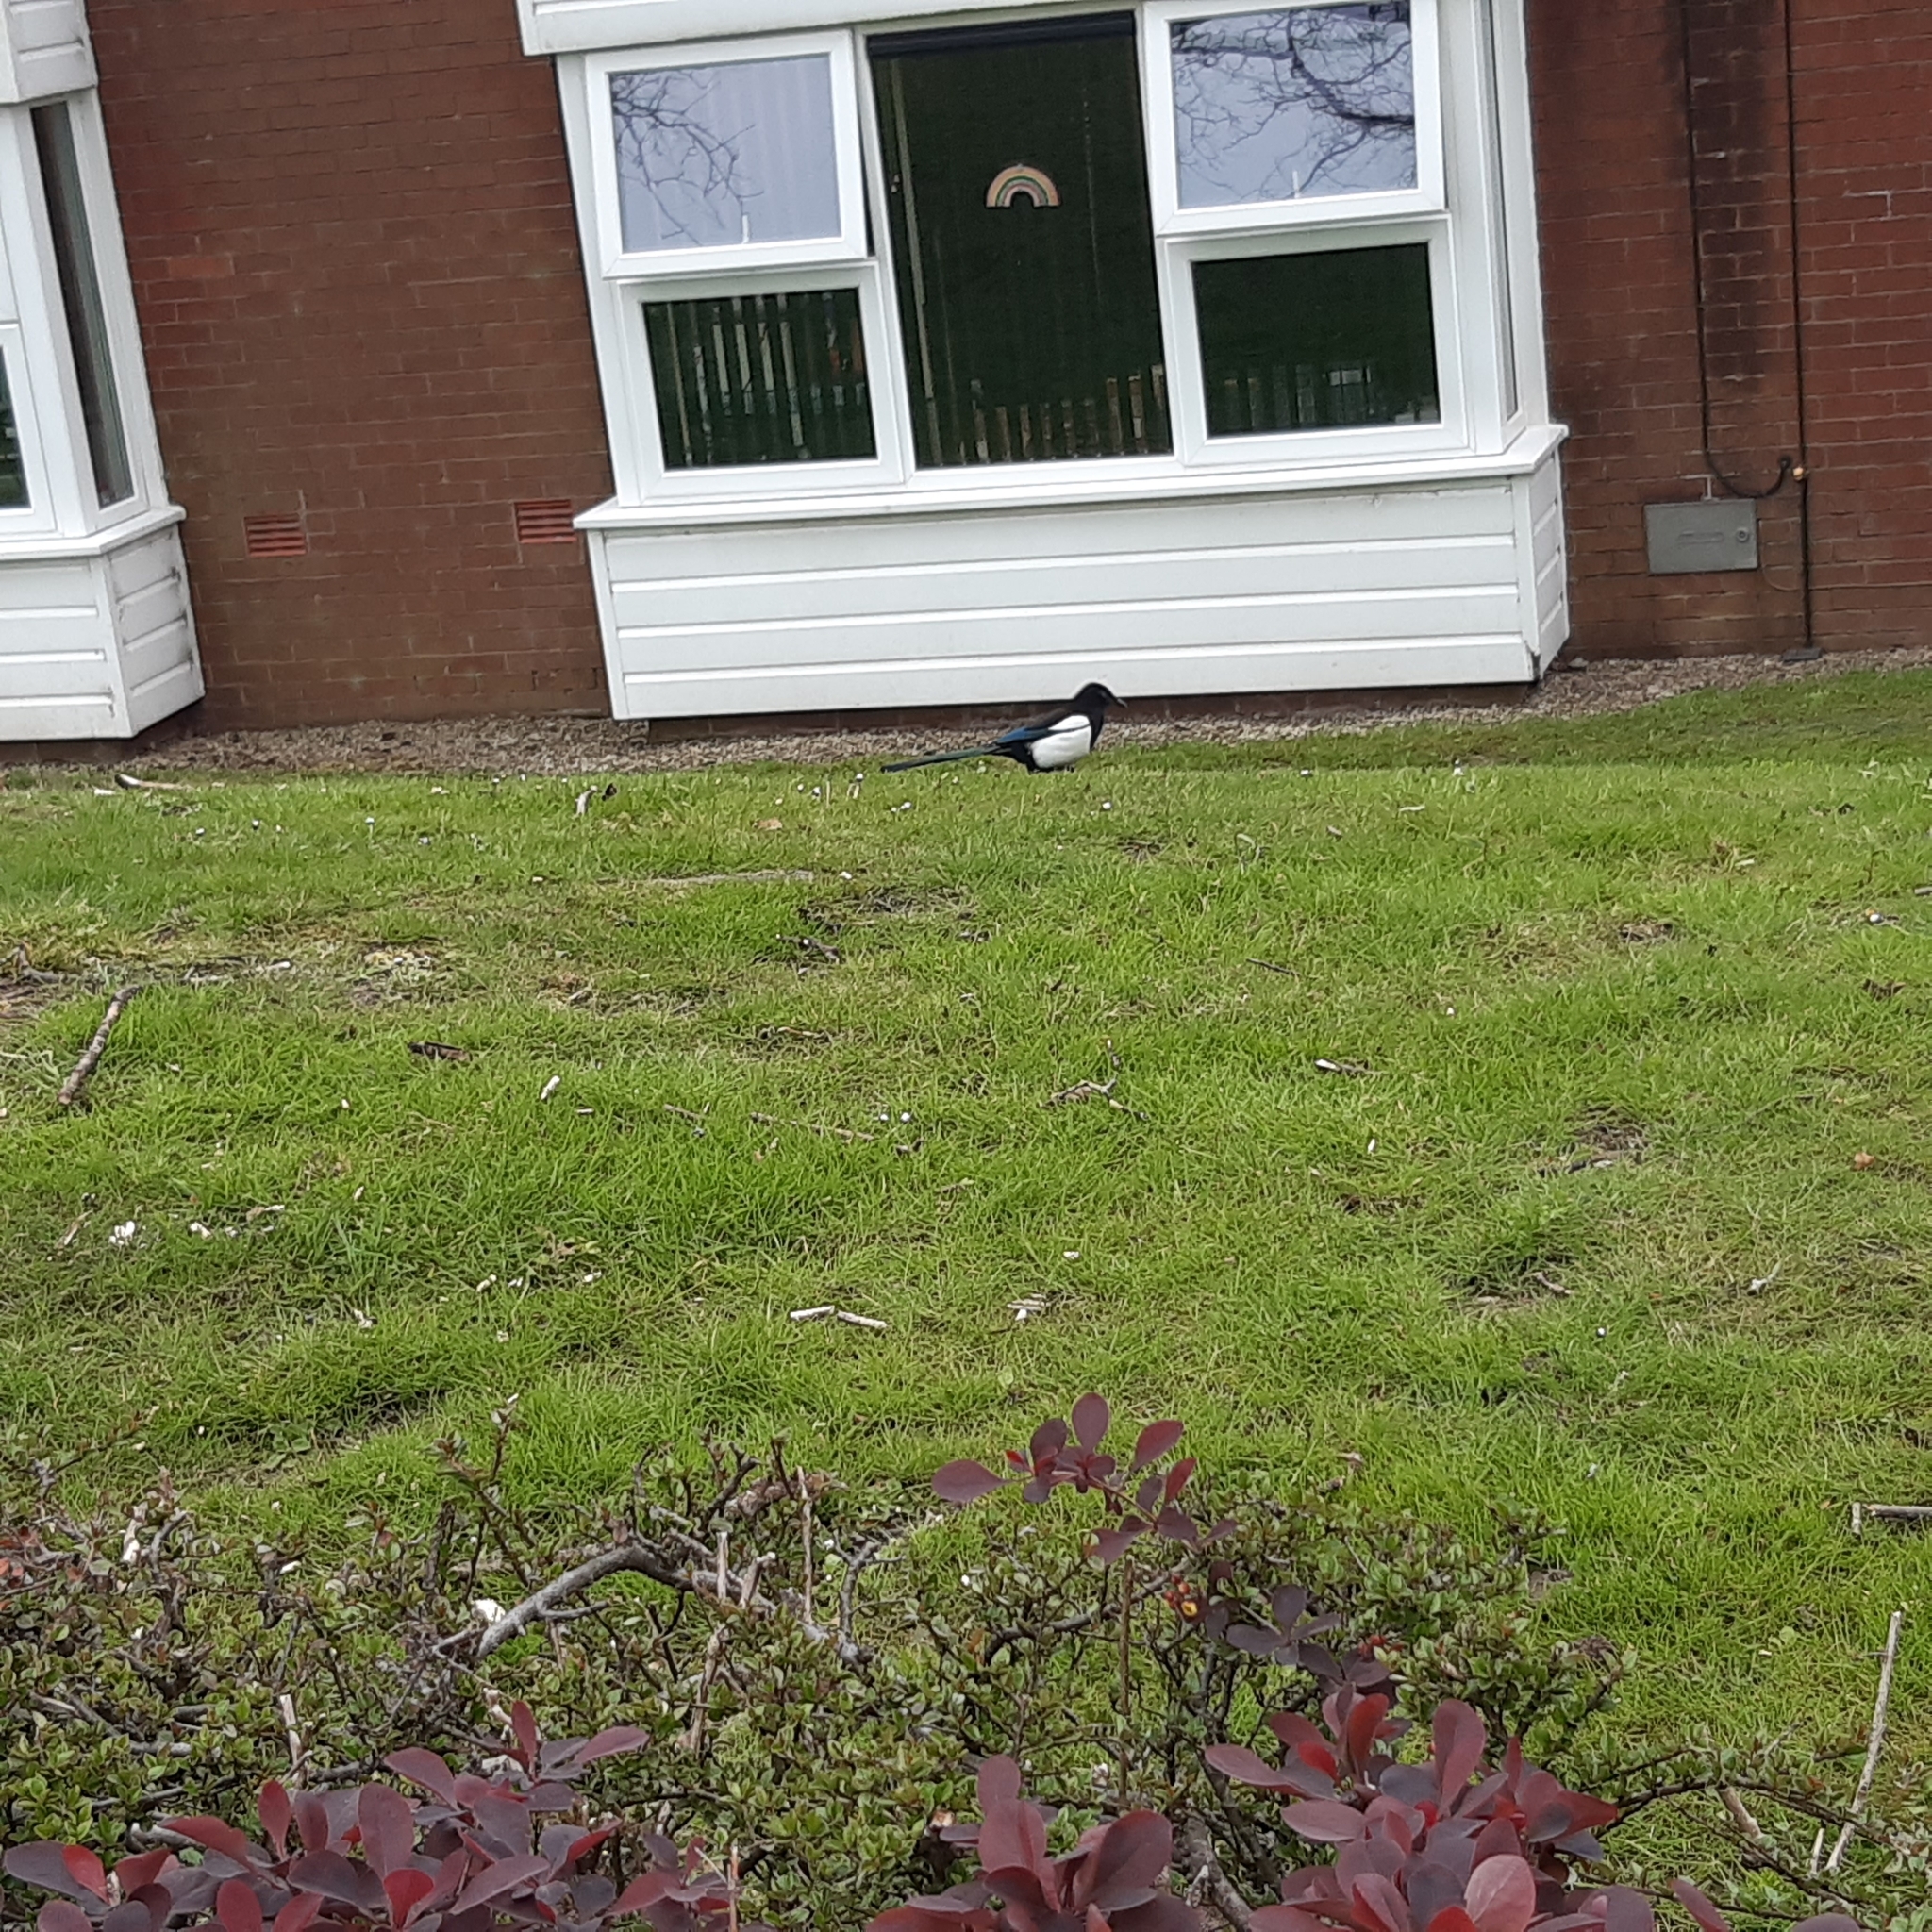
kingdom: Animalia
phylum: Chordata
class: Aves
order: Passeriformes
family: Corvidae
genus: Pica
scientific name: Pica pica
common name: Eurasian magpie
